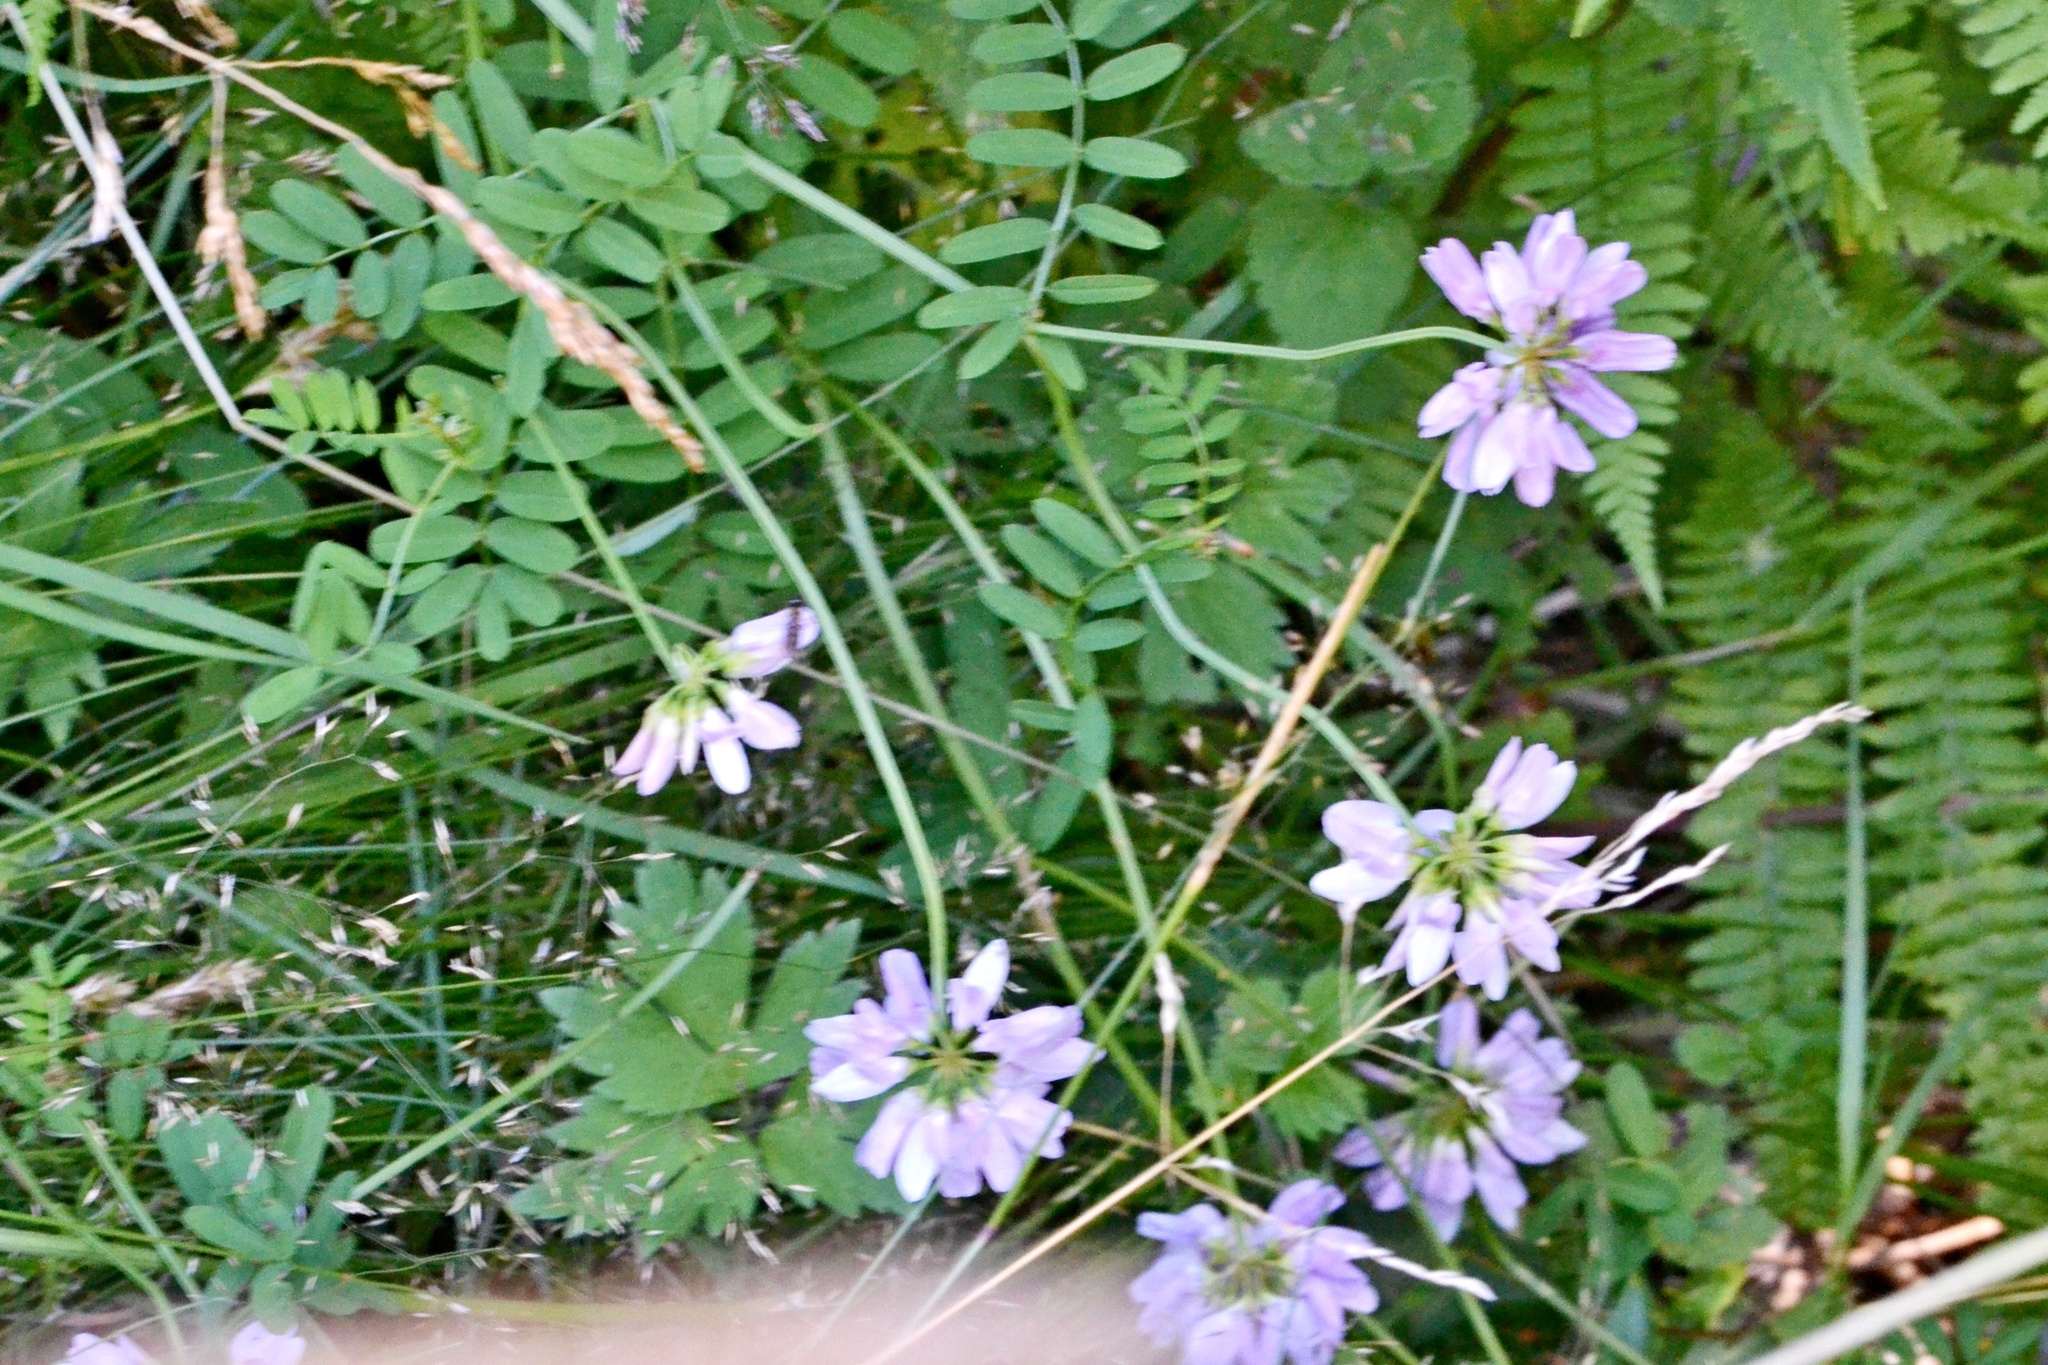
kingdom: Plantae
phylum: Tracheophyta
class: Magnoliopsida
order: Fabales
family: Fabaceae
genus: Coronilla
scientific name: Coronilla varia
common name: Crownvetch
